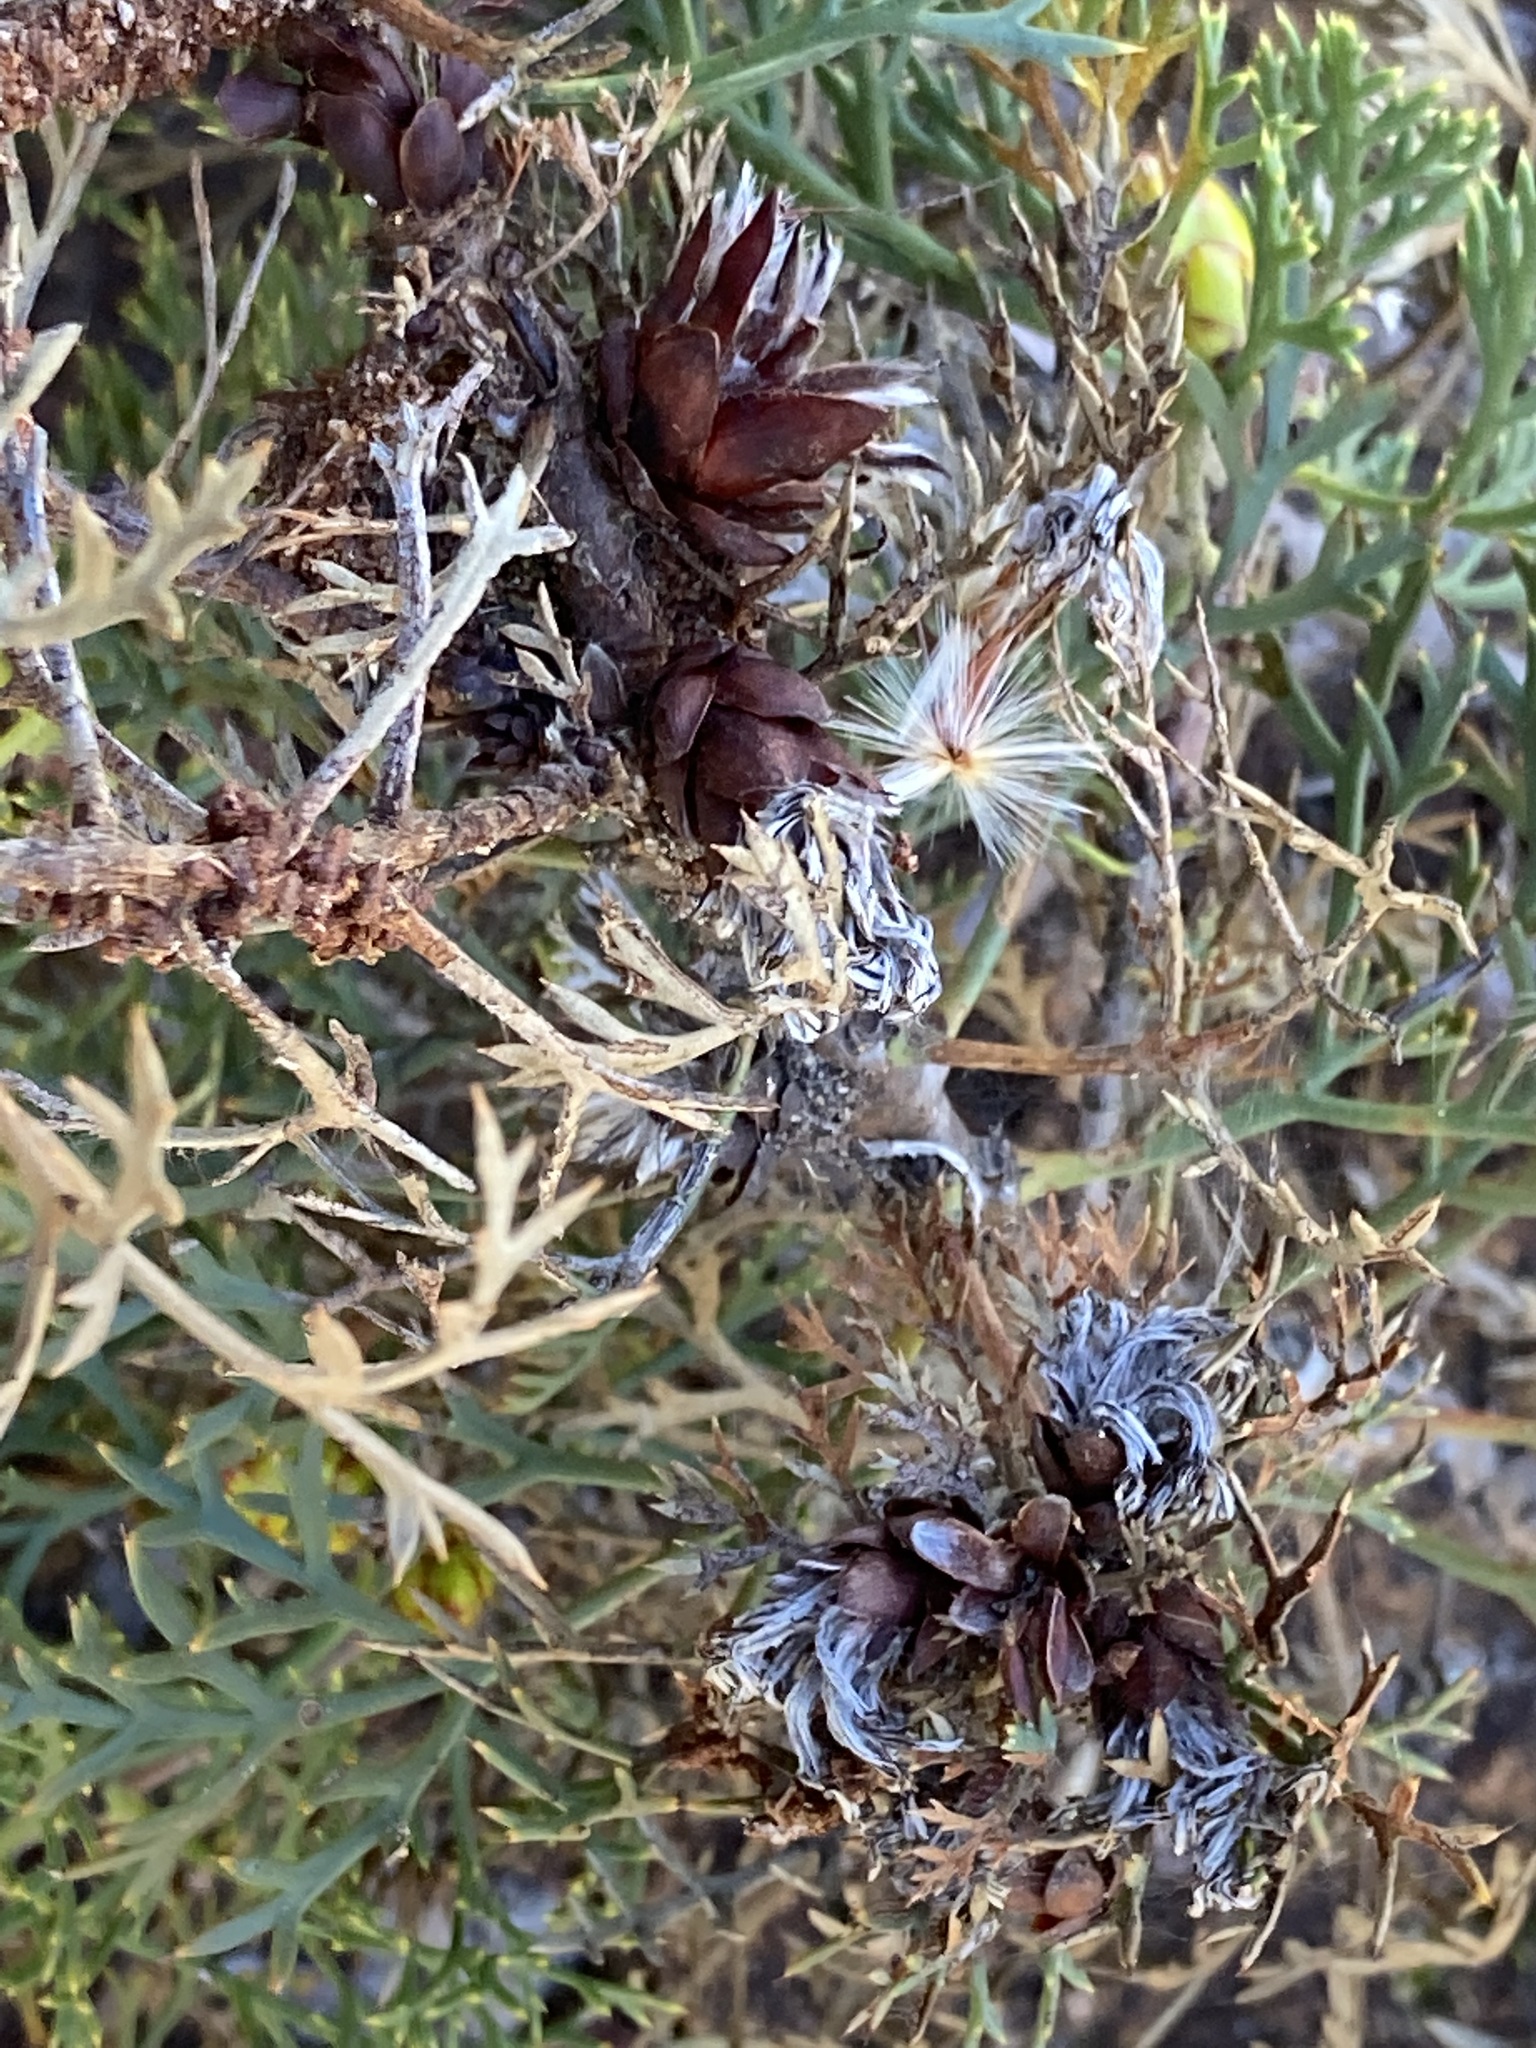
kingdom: Plantae
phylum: Tracheophyta
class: Magnoliopsida
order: Proteales
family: Proteaceae
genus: Petrophile
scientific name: Petrophile striata
